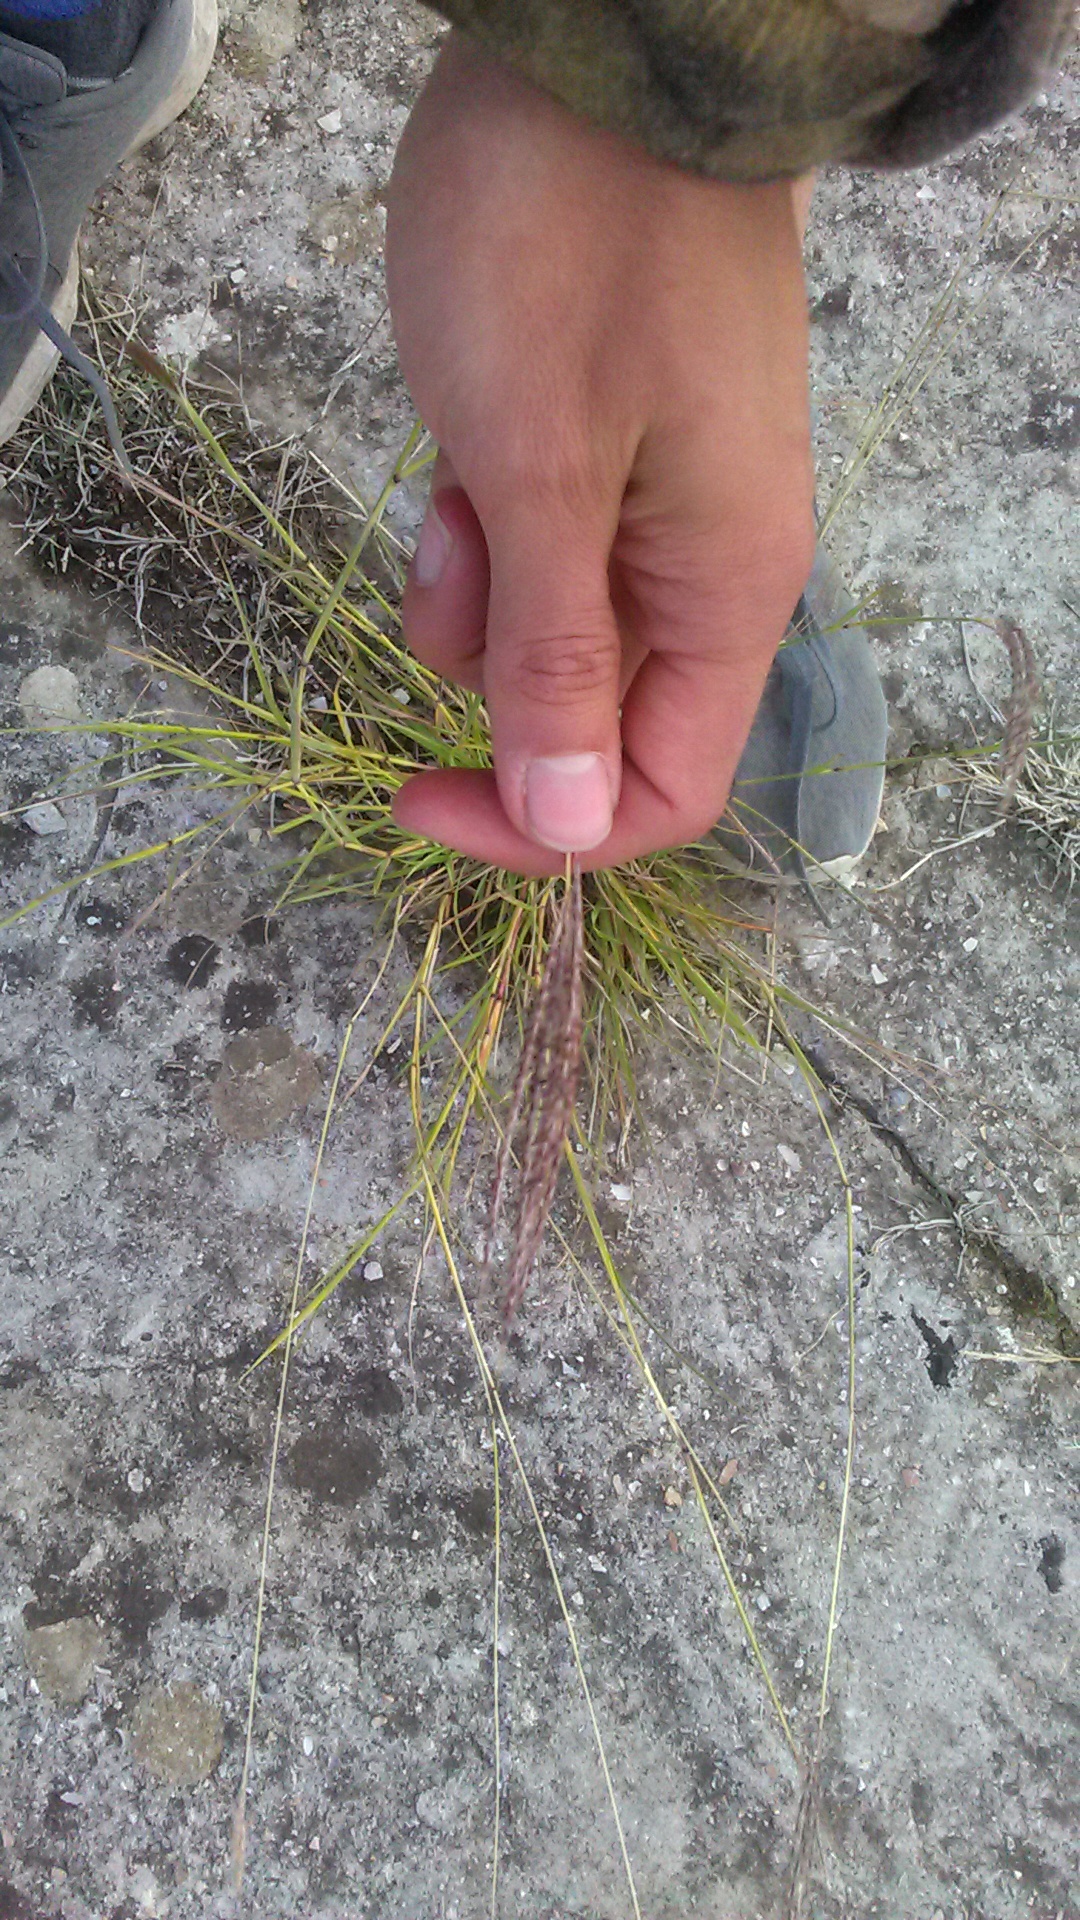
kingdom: Plantae
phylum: Tracheophyta
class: Liliopsida
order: Poales
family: Poaceae
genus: Bothriochloa
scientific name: Bothriochloa ischaemum
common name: Yellow bluestem
